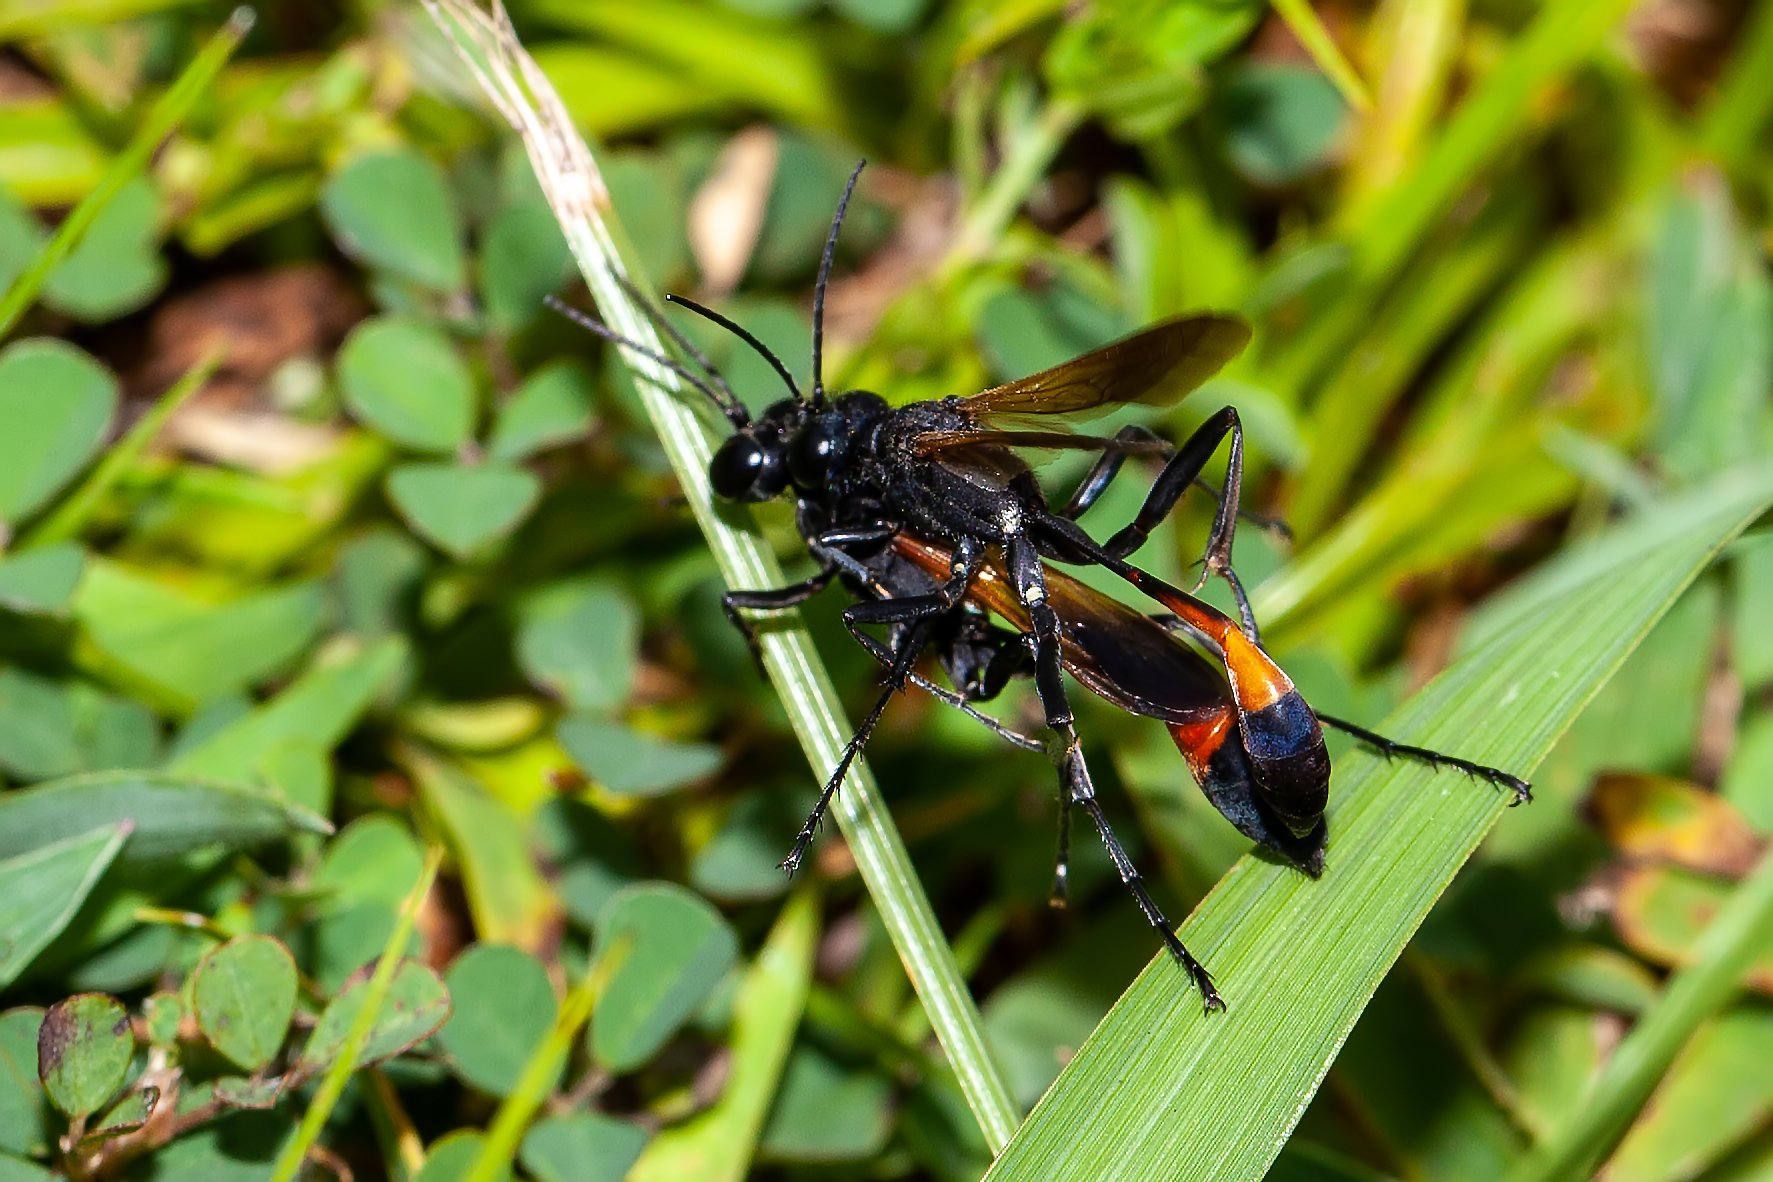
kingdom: Animalia
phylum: Arthropoda
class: Insecta
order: Hymenoptera
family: Sphecidae
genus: Ammophila
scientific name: Ammophila pictipennis
